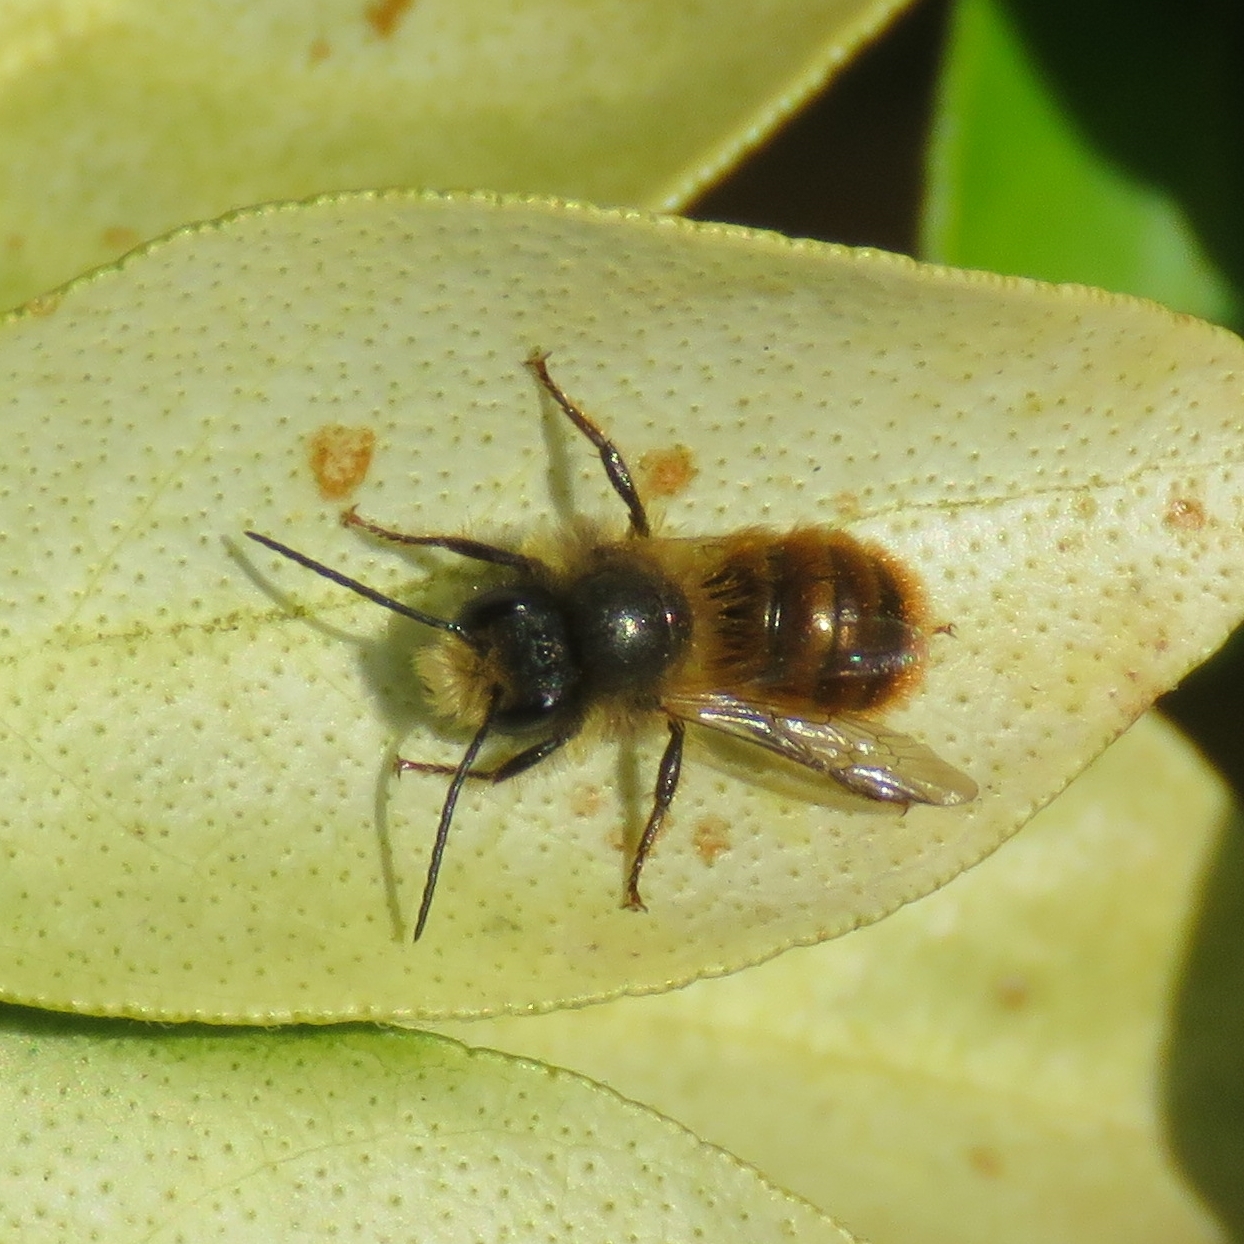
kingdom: Animalia
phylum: Arthropoda
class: Insecta
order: Hymenoptera
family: Megachilidae
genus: Osmia
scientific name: Osmia bicornis
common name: Red mason bee
